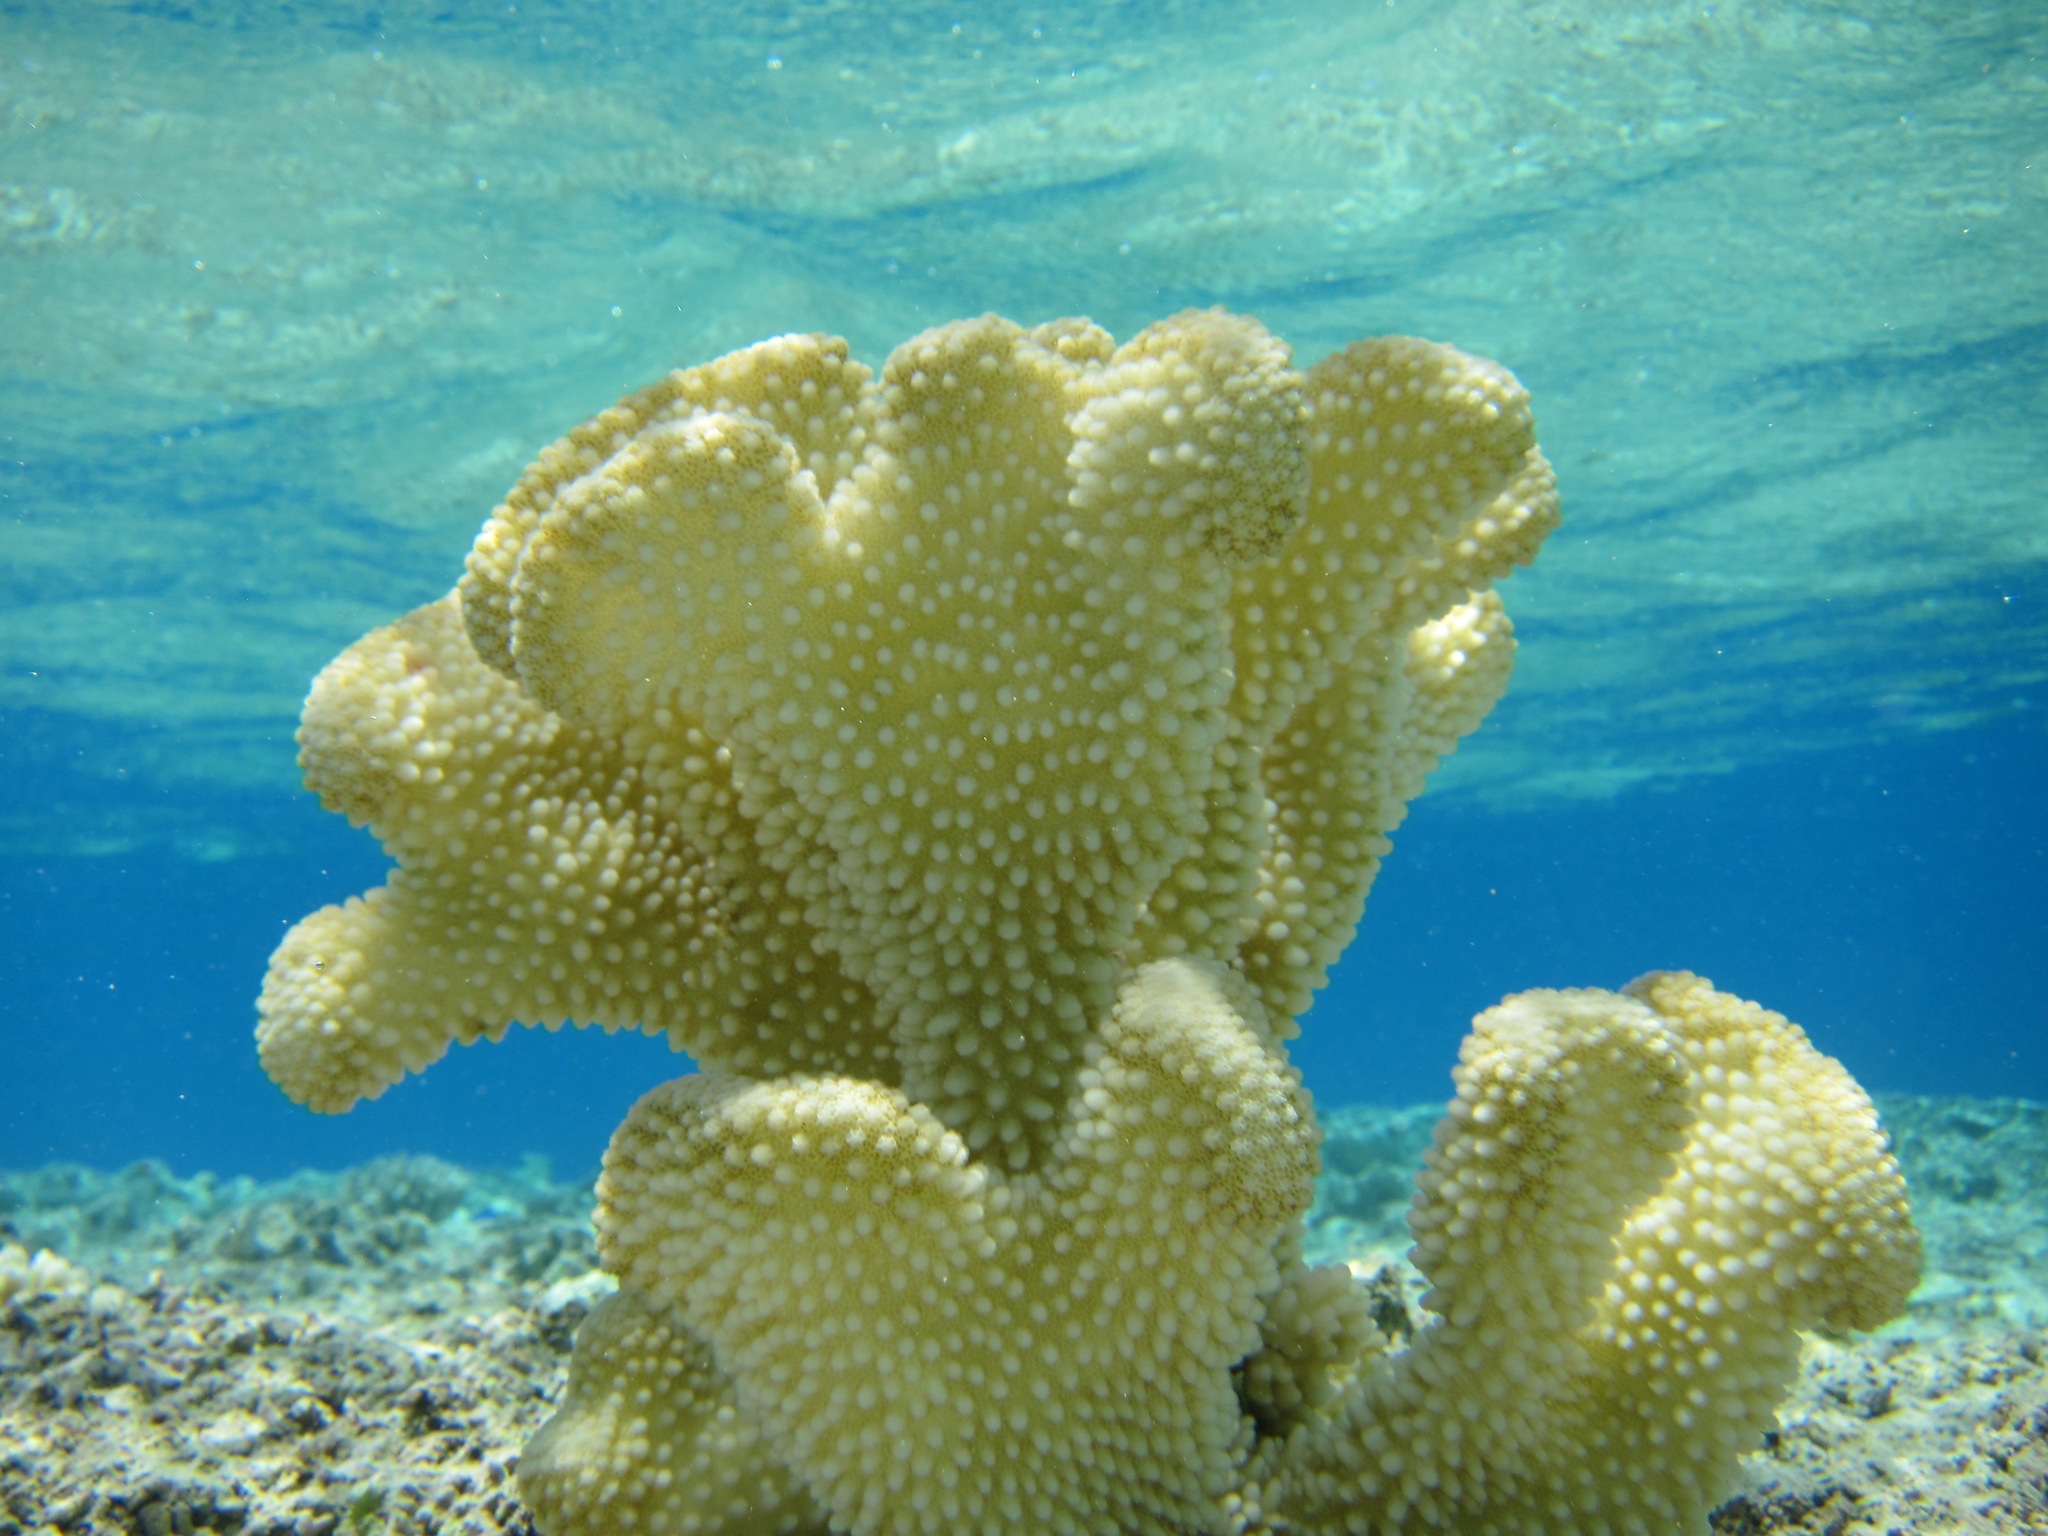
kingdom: Animalia
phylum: Cnidaria
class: Anthozoa
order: Scleractinia
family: Pocilloporidae
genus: Pocillopora
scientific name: Pocillopora grandis
